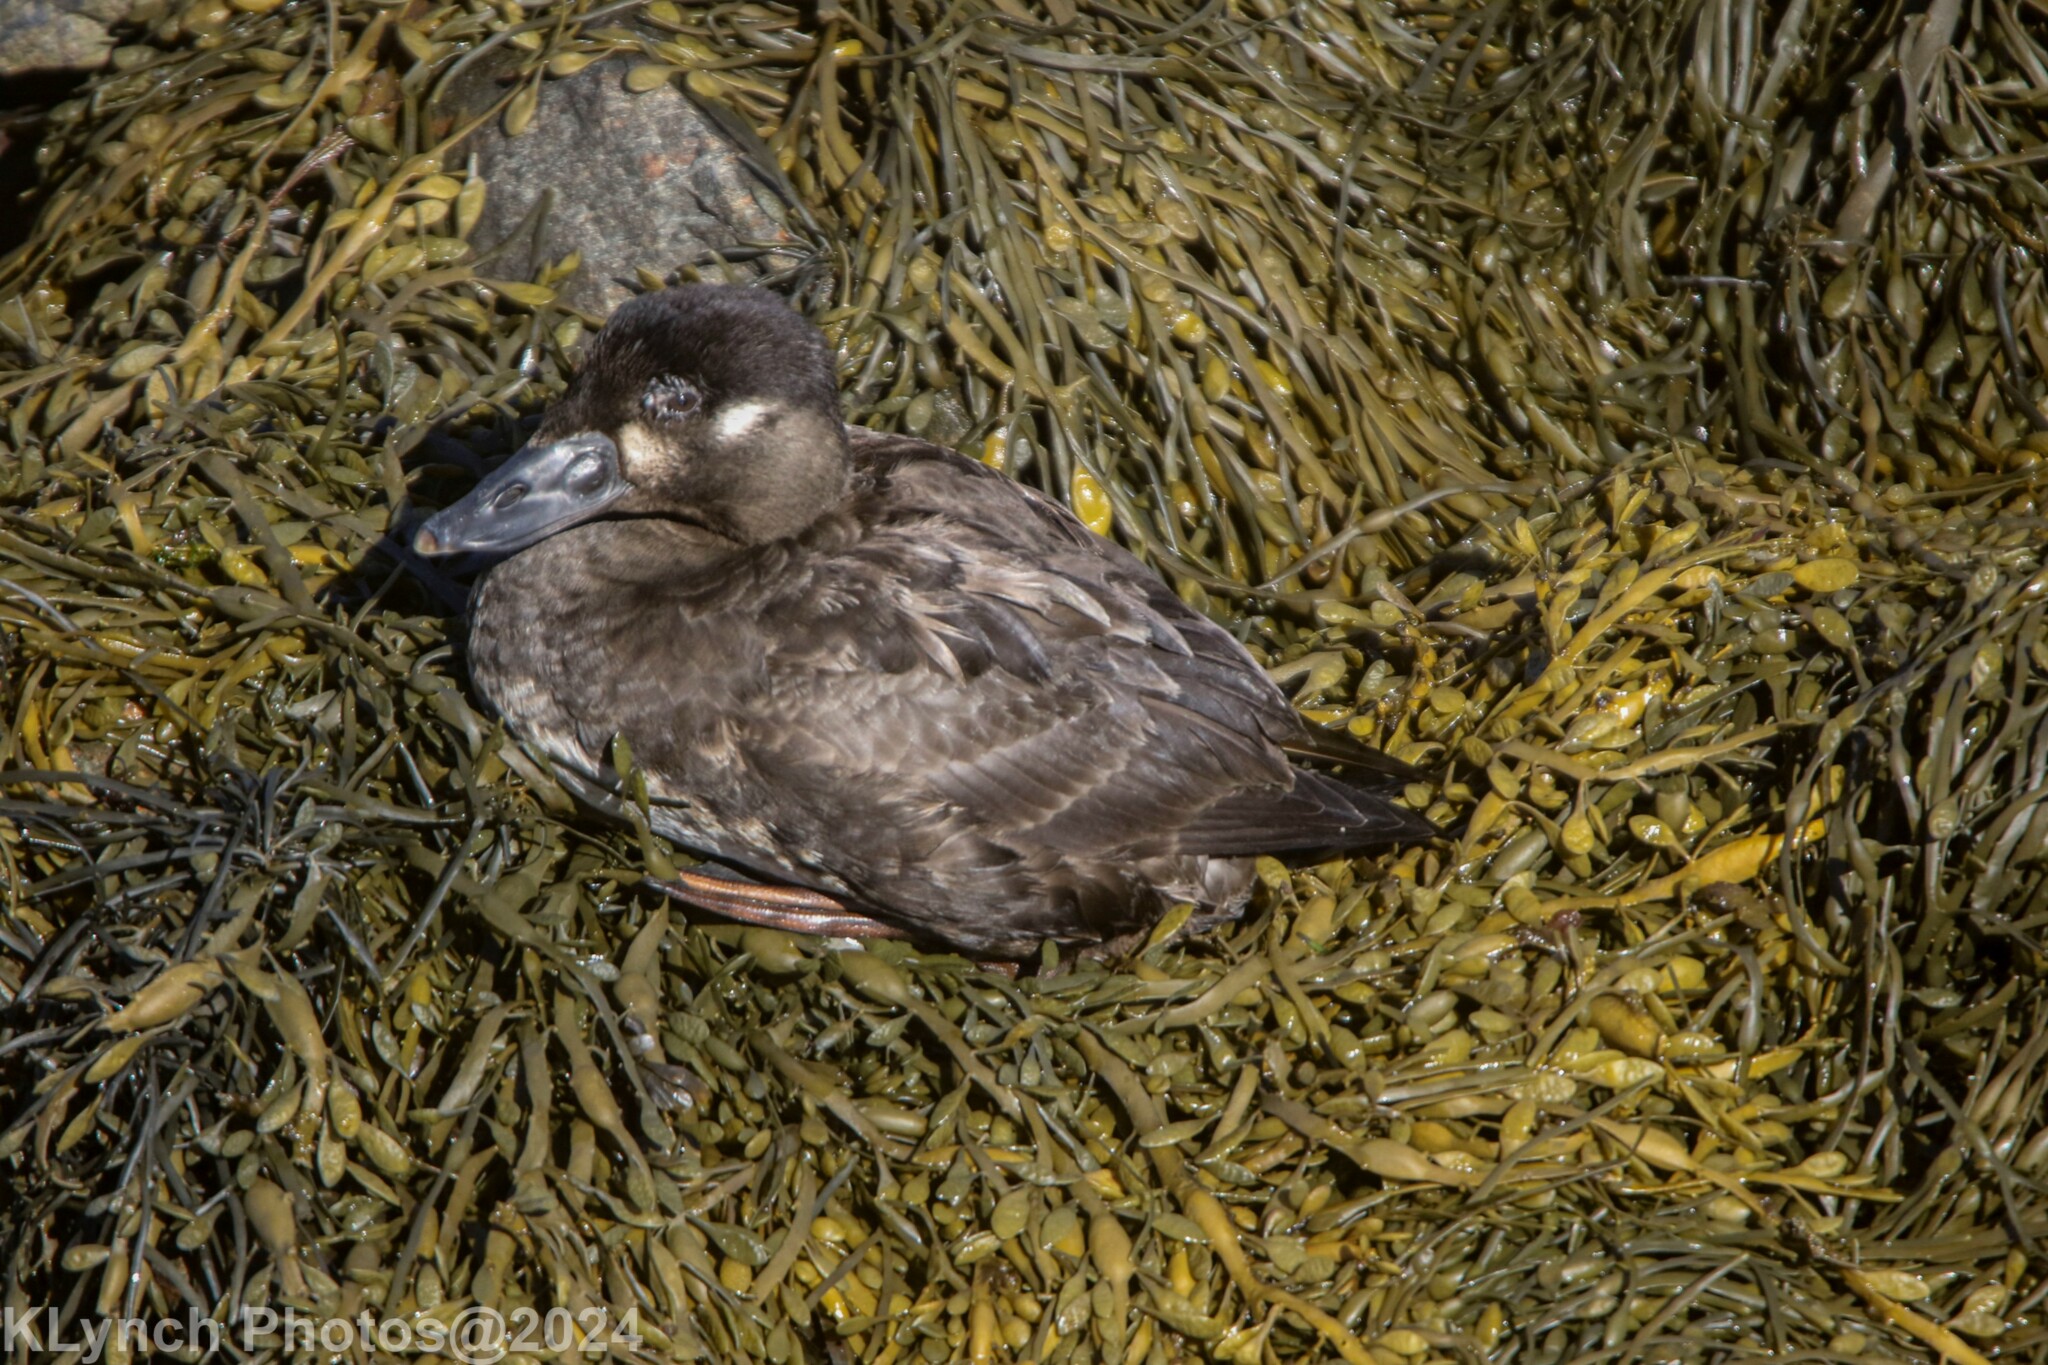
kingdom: Animalia
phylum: Chordata
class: Aves
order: Anseriformes
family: Anatidae
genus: Melanitta
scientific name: Melanitta perspicillata
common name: Surf scoter
